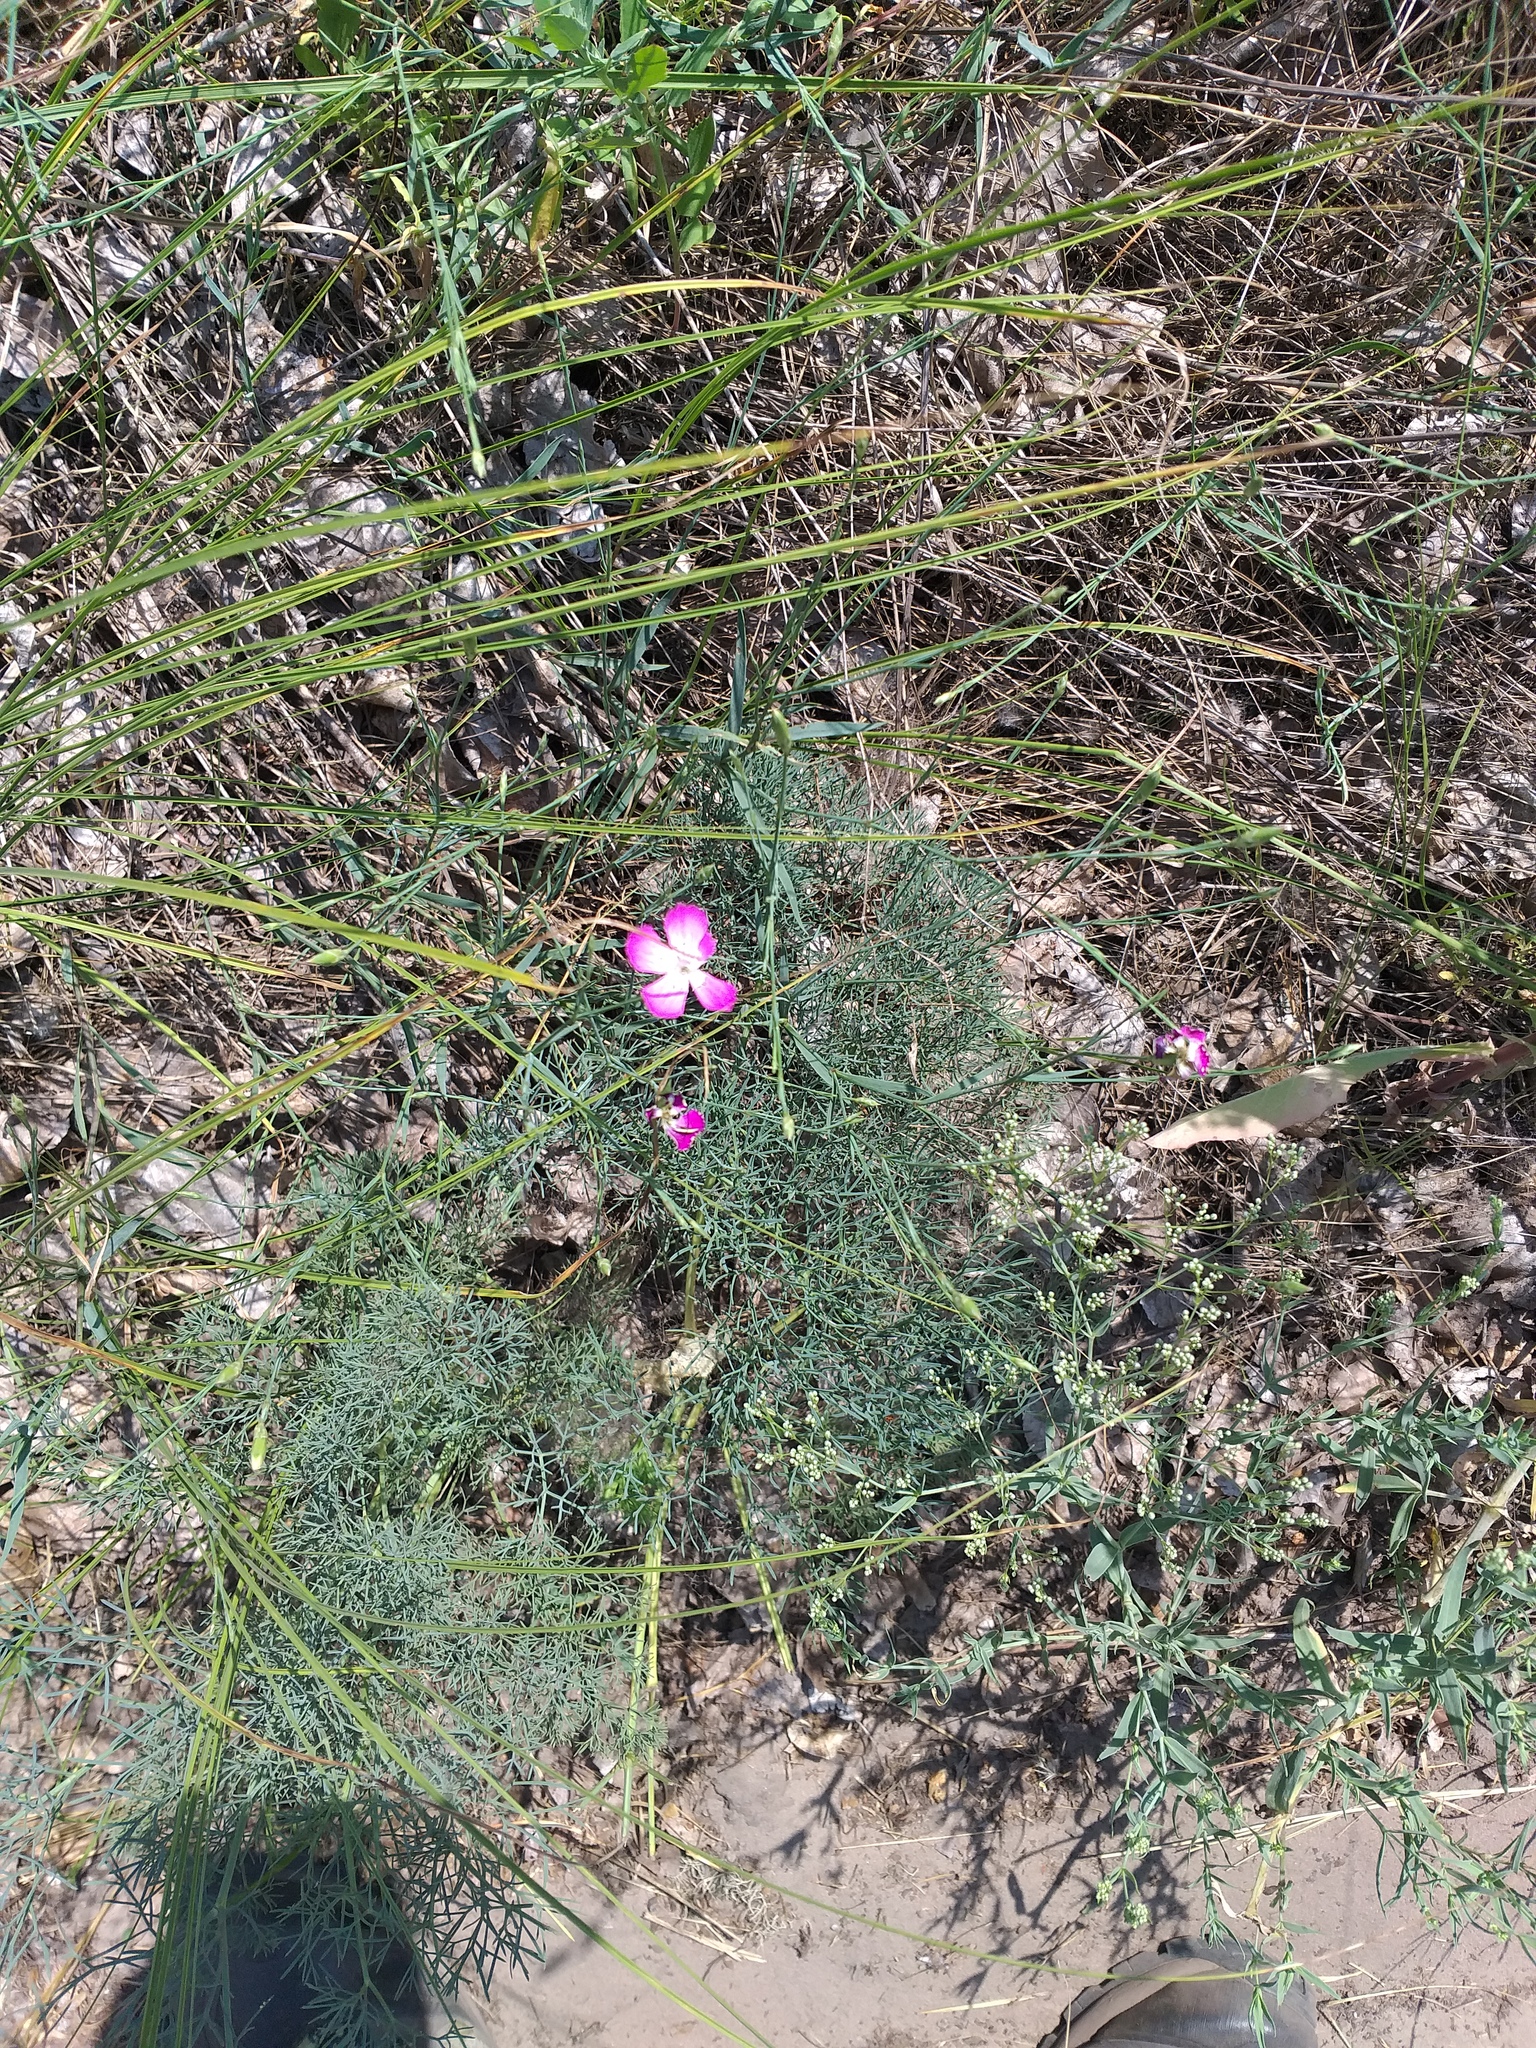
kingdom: Plantae
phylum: Tracheophyta
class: Magnoliopsida
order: Caryophyllales
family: Caryophyllaceae
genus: Dianthus
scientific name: Dianthus campestris
